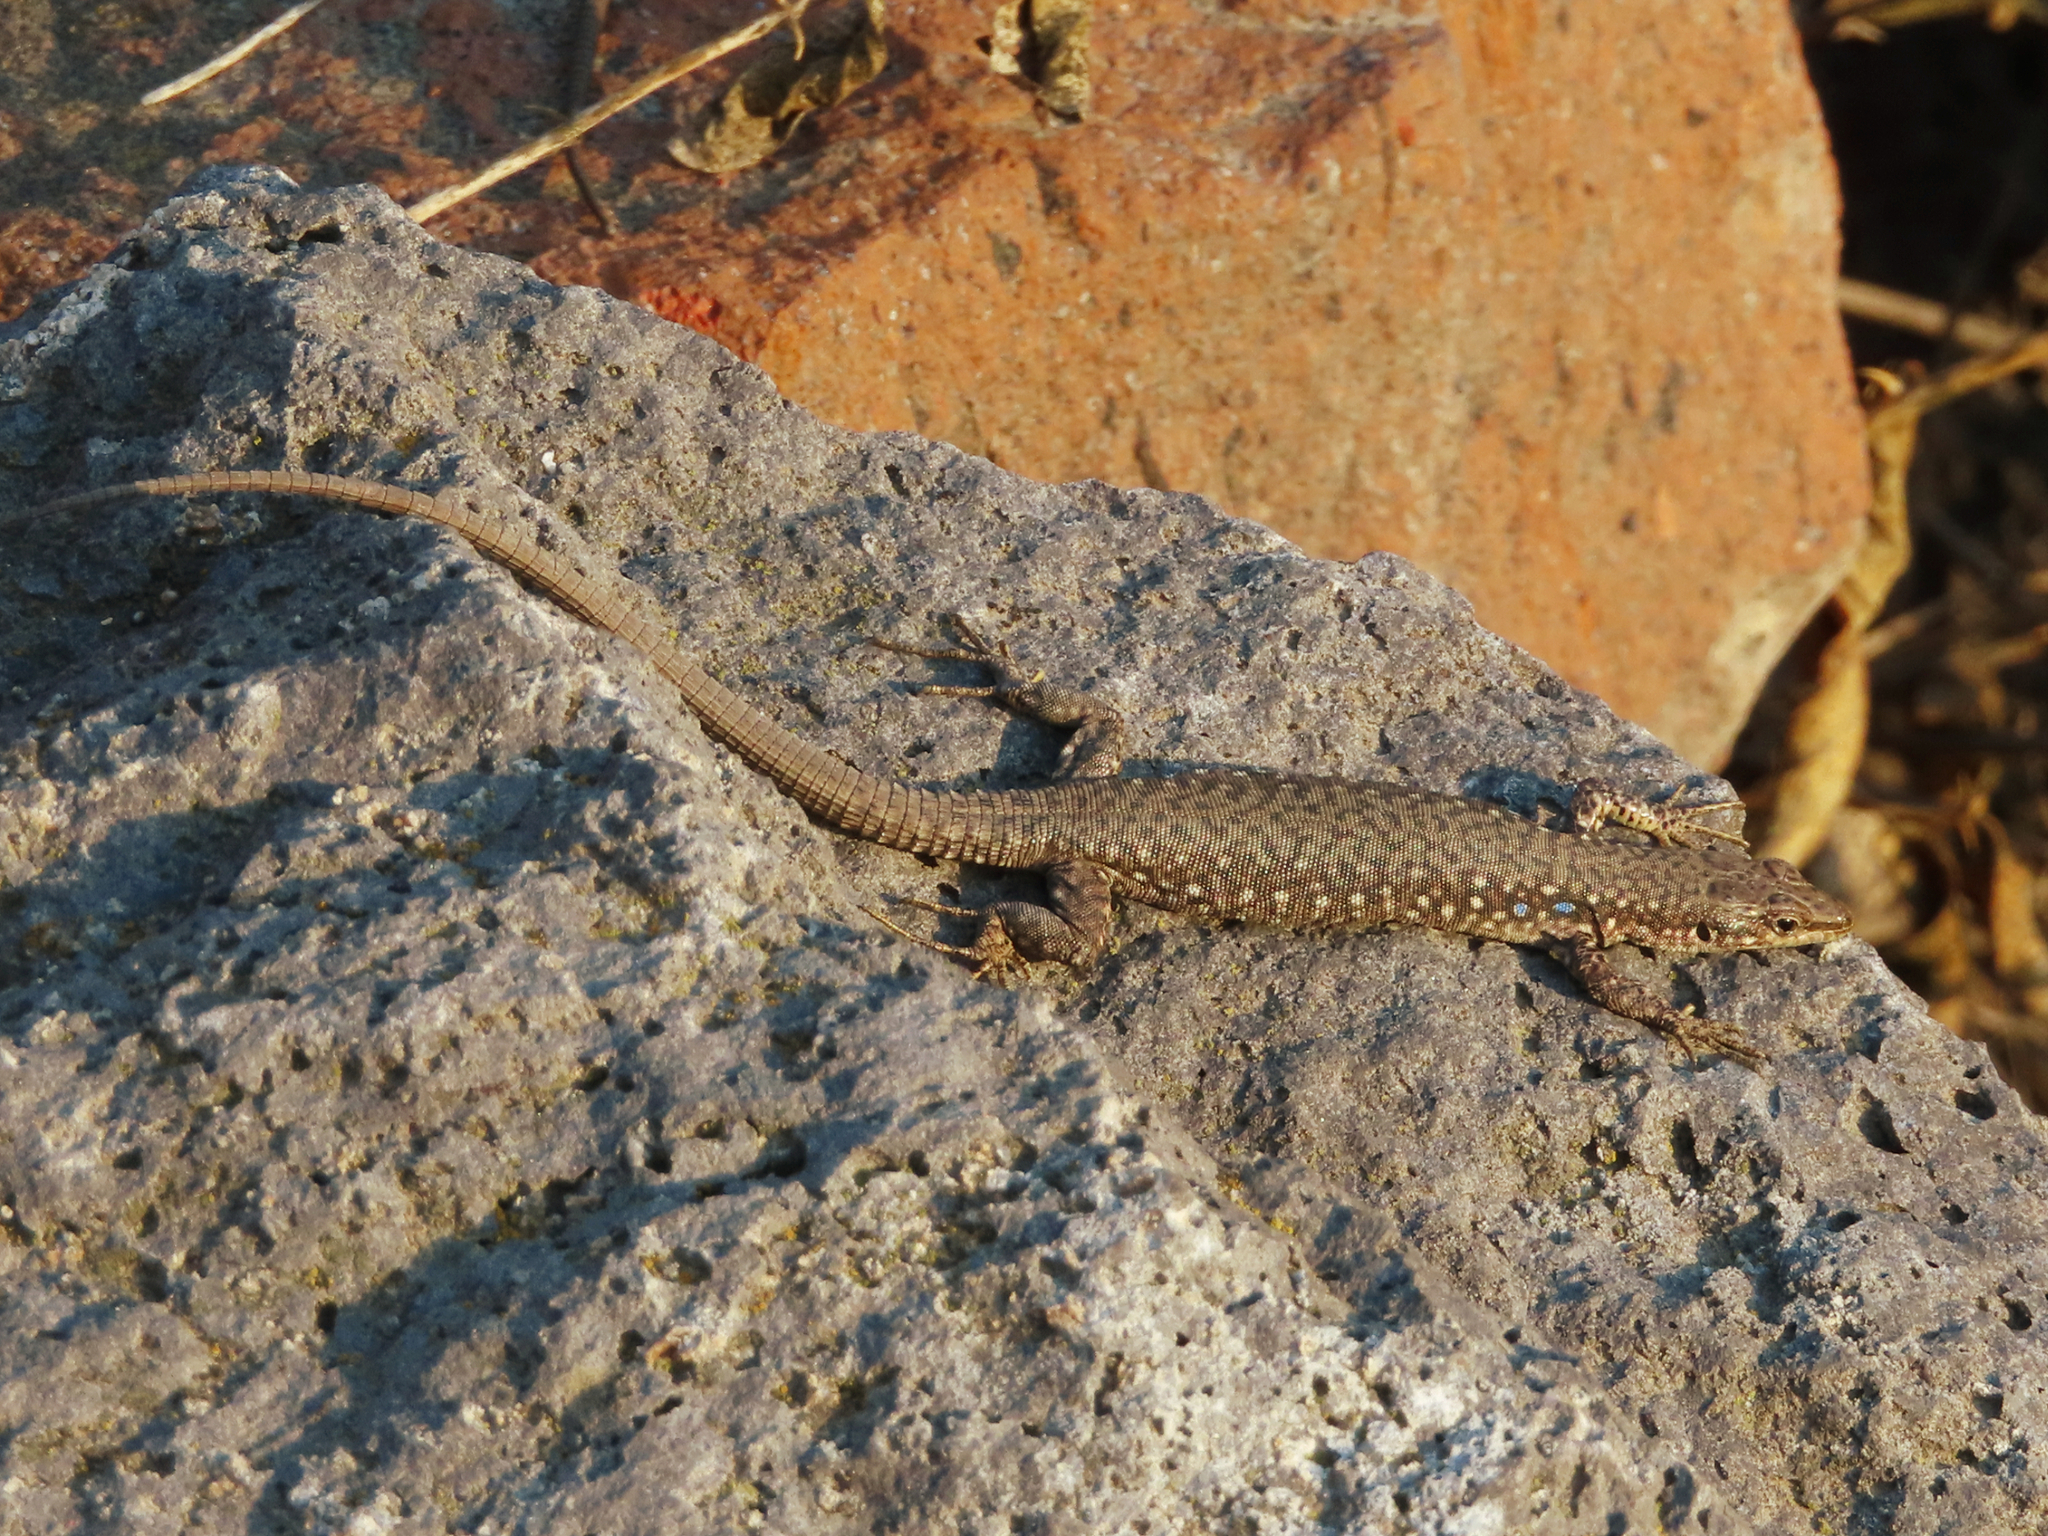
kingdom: Animalia
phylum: Chordata
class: Squamata
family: Lacertidae
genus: Darevskia
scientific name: Darevskia
